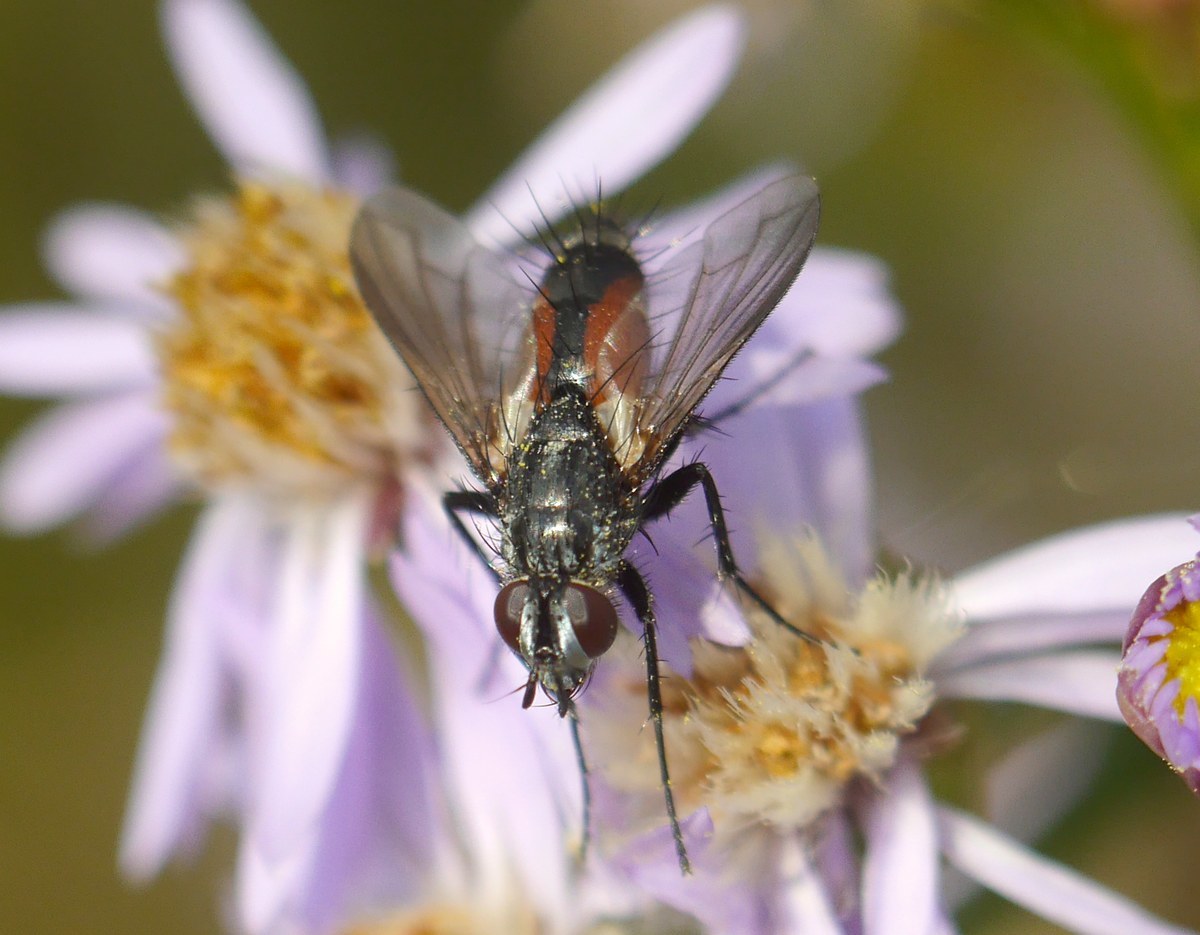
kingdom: Animalia
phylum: Arthropoda
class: Insecta
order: Diptera
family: Tachinidae
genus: Eriothrix
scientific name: Eriothrix rufomaculatus
